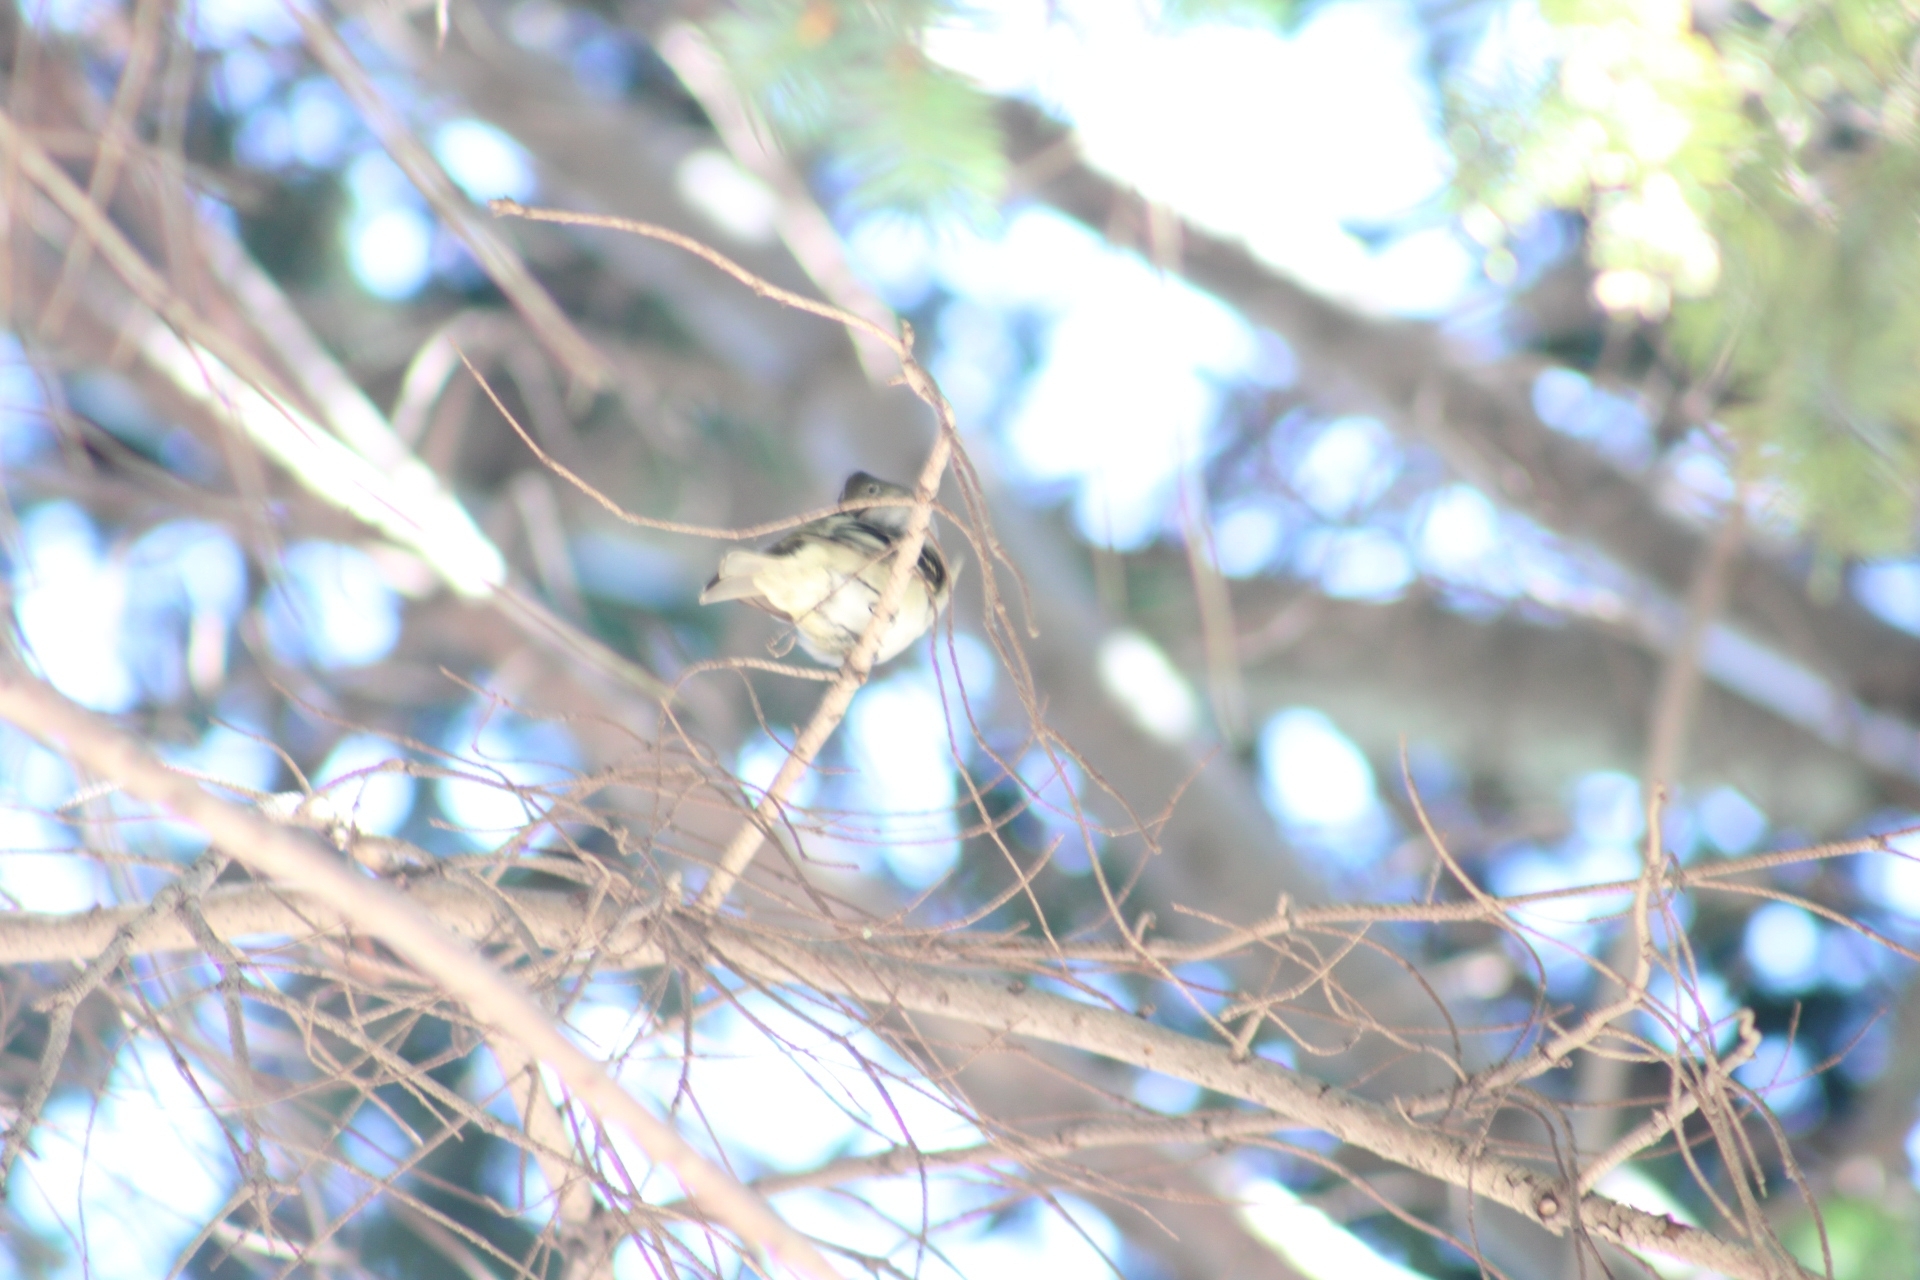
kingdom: Animalia
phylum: Chordata
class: Aves
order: Passeriformes
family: Tyrannidae
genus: Elaenia
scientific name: Elaenia albiceps
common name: White-crested elaenia
